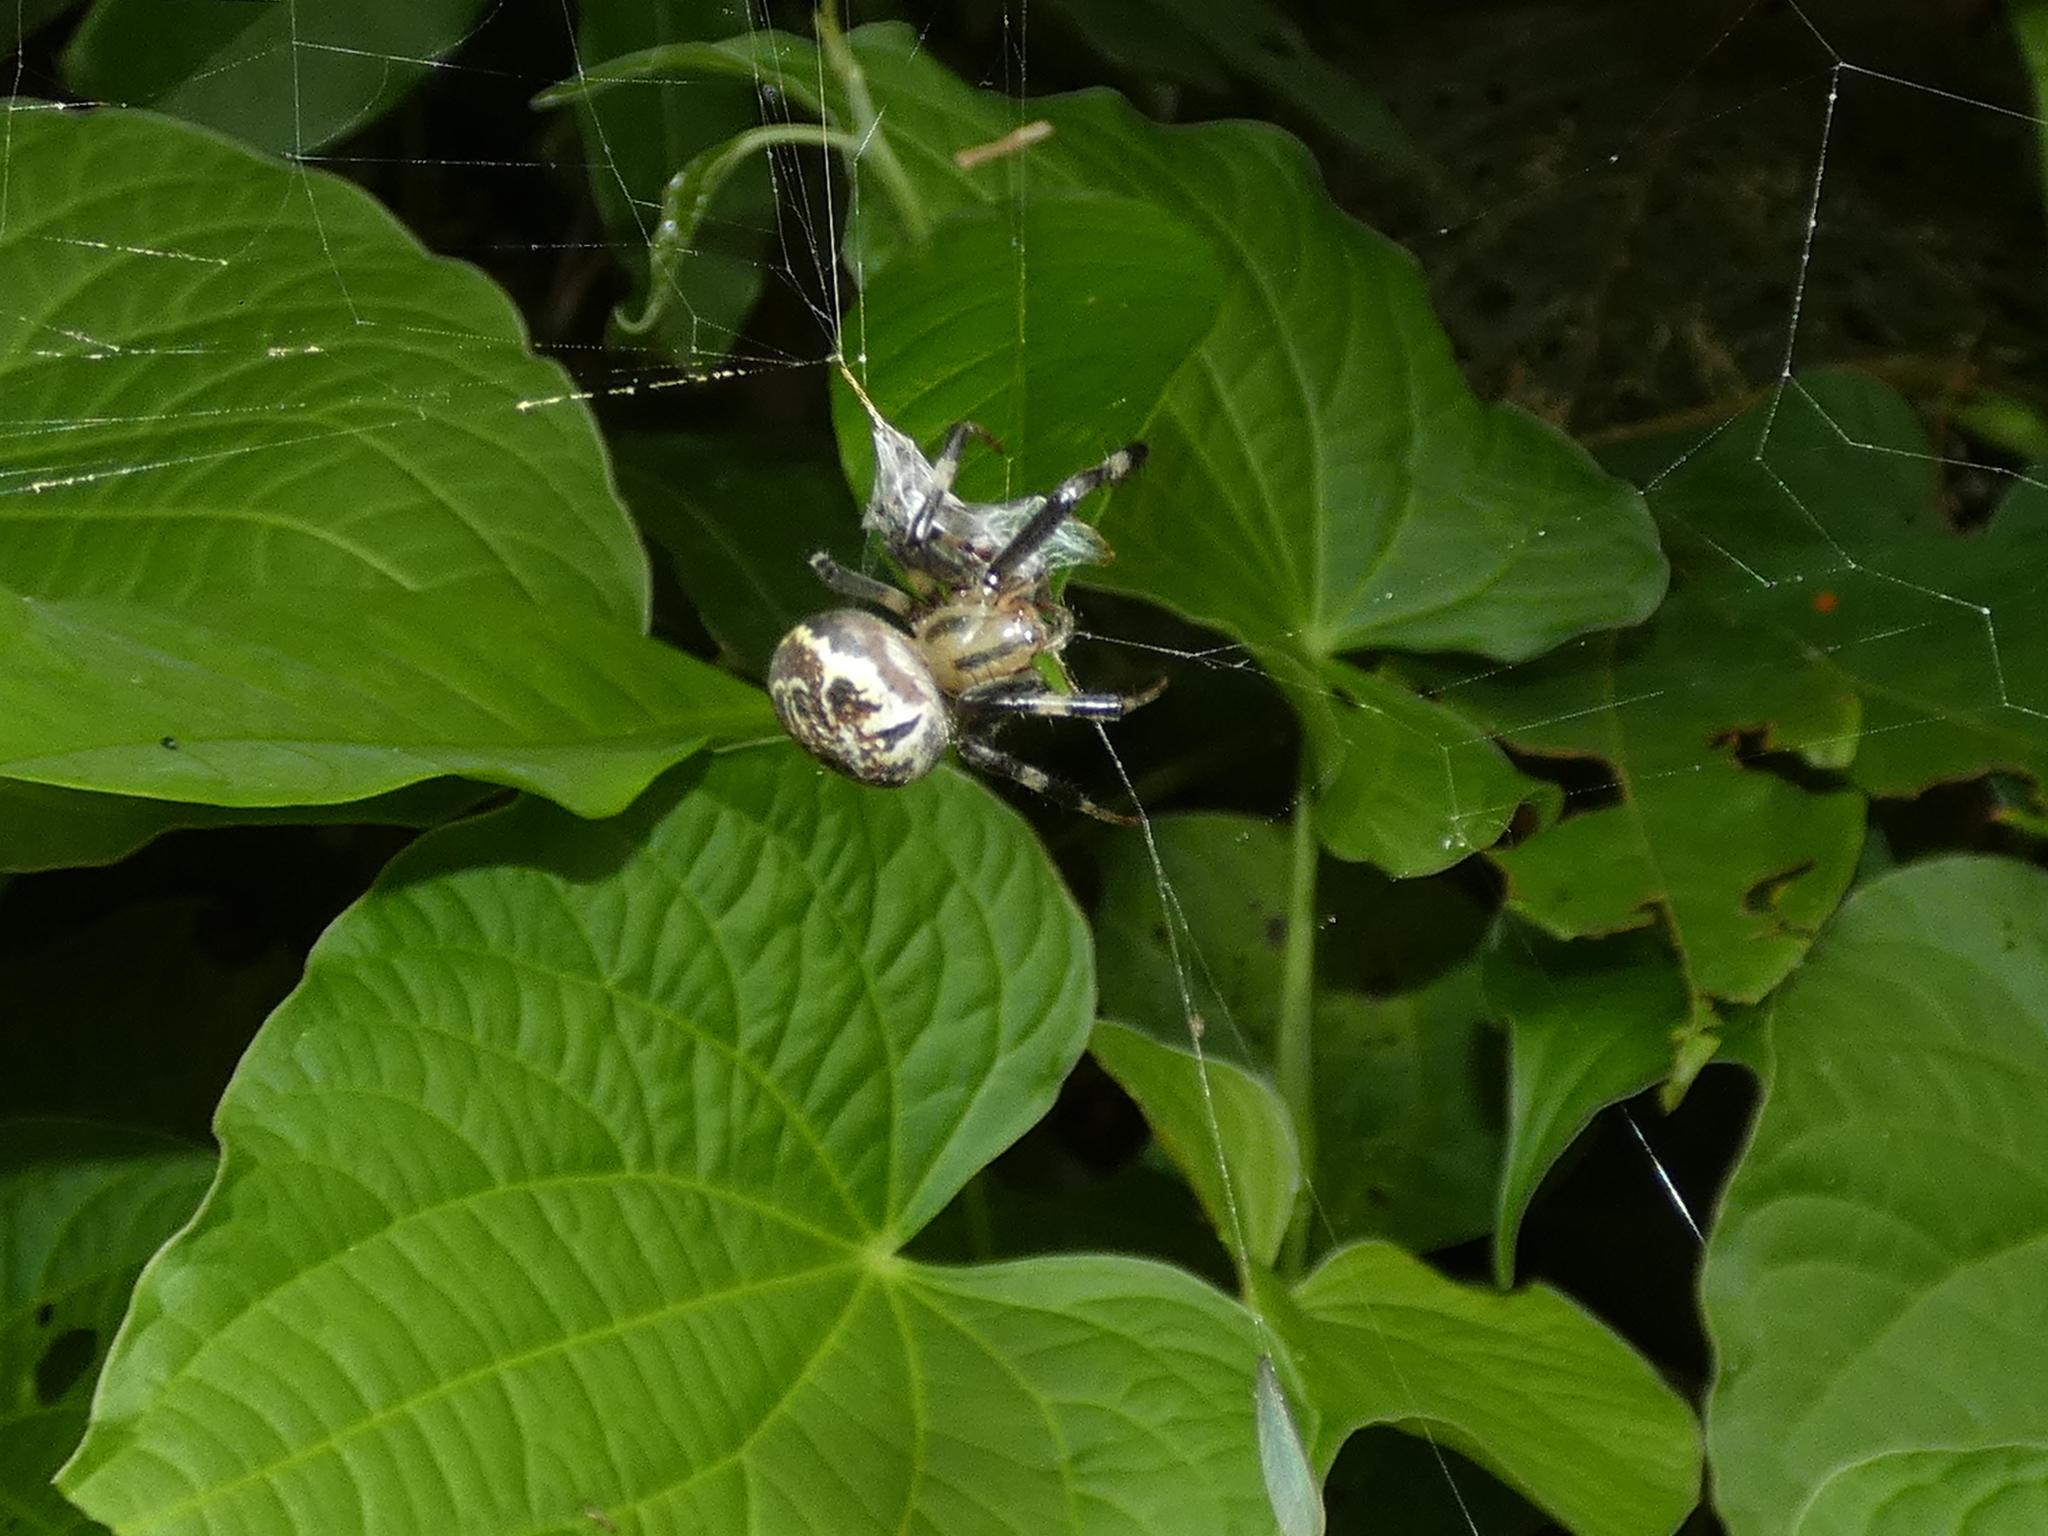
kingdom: Animalia
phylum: Arthropoda
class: Arachnida
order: Araneae
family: Araneidae
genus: Araneus
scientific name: Araneus venatrix
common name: Orb weavers
